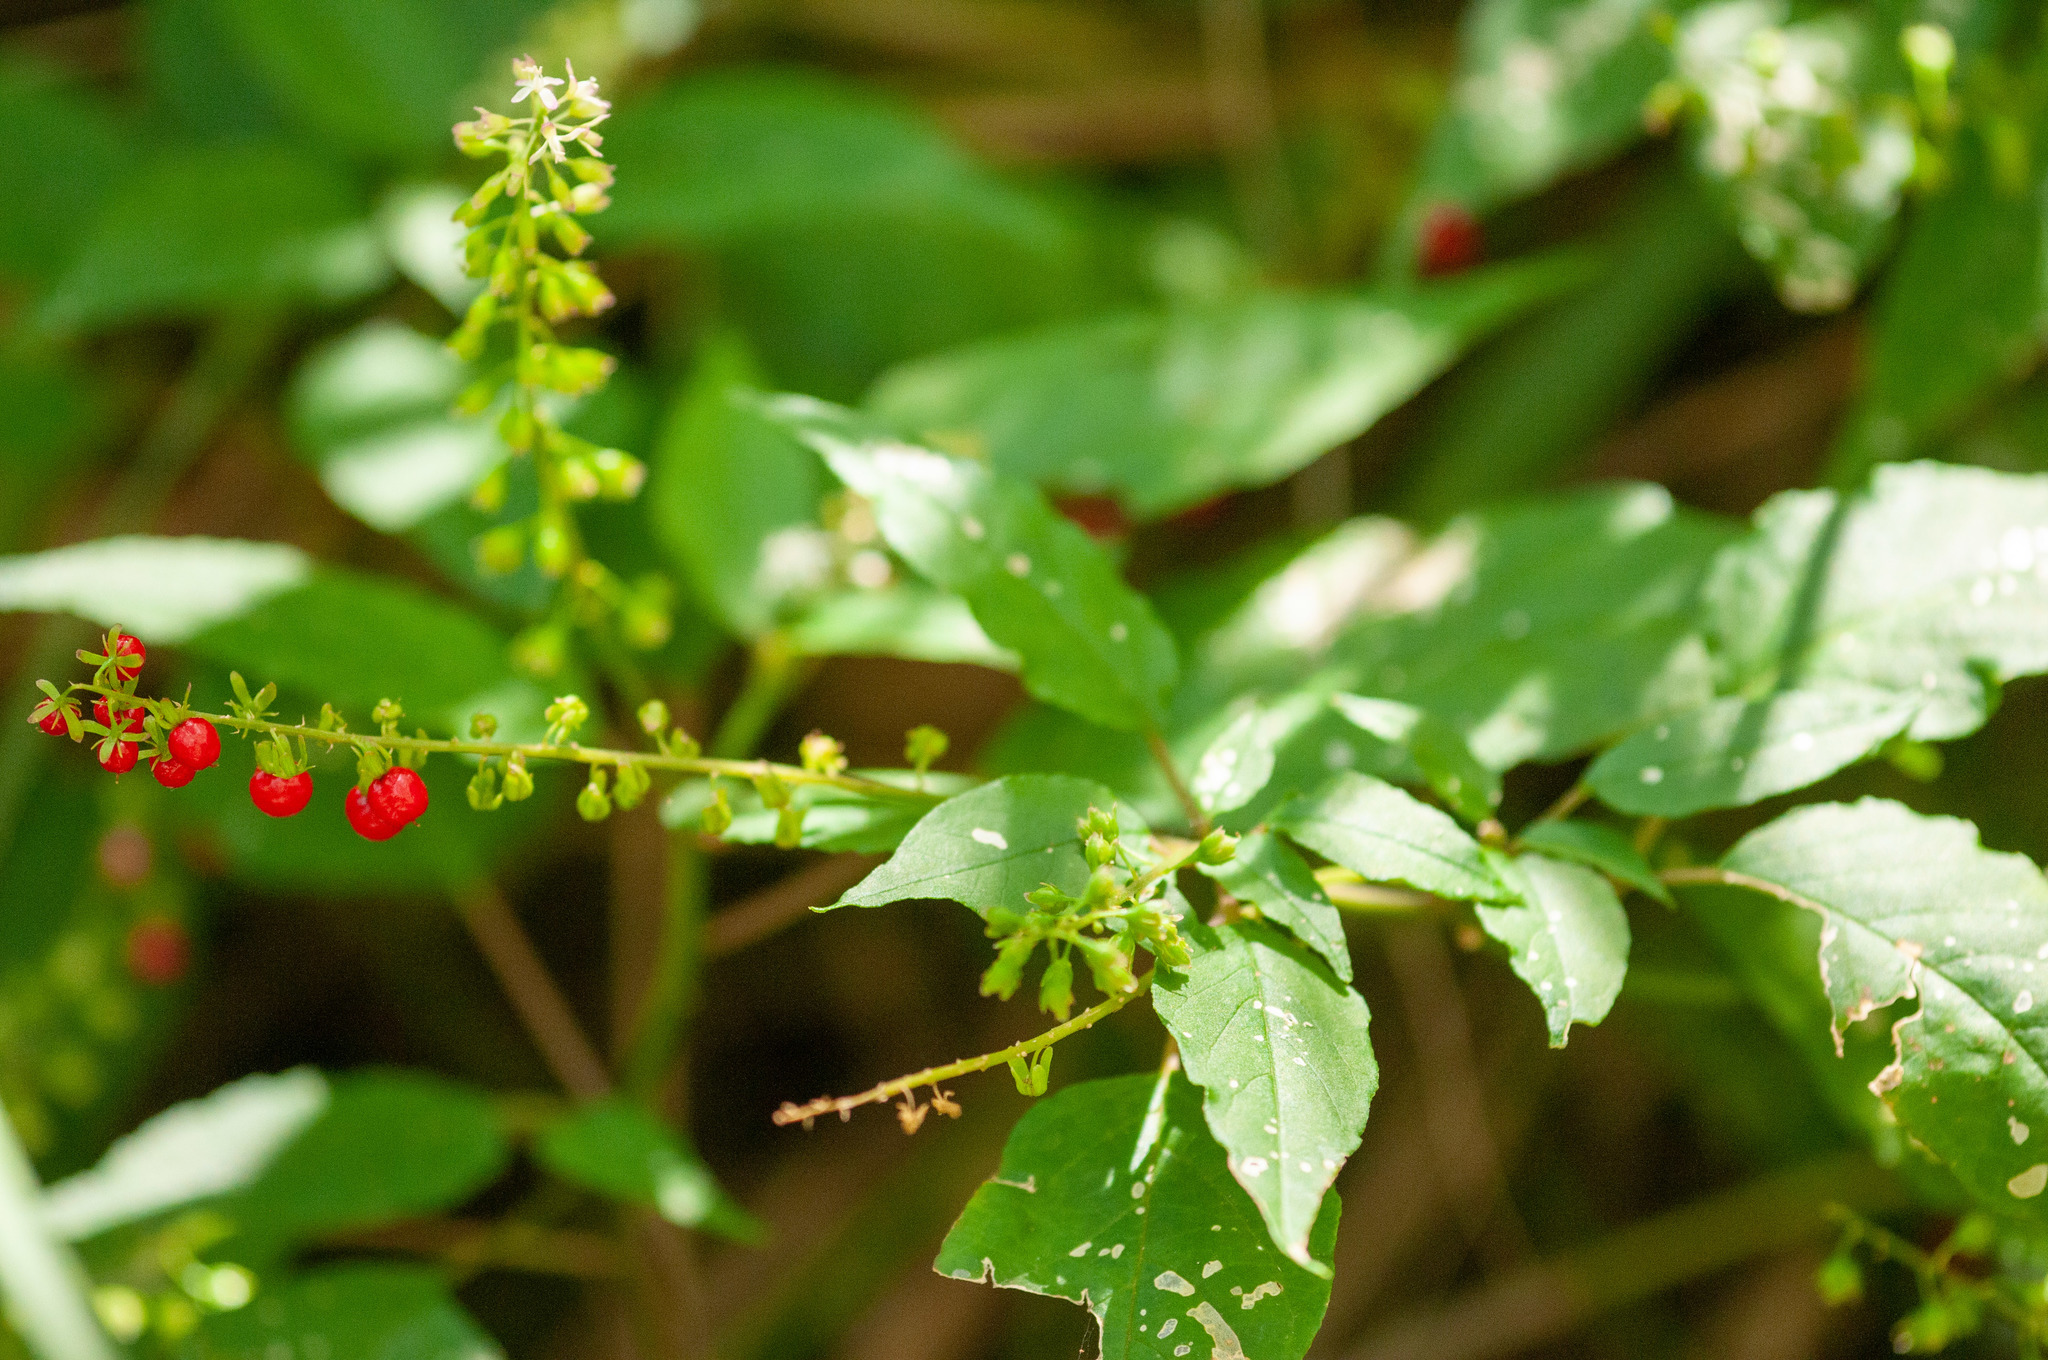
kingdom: Plantae
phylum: Tracheophyta
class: Magnoliopsida
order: Caryophyllales
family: Phytolaccaceae
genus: Rivina
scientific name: Rivina humilis
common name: Rougeplant
